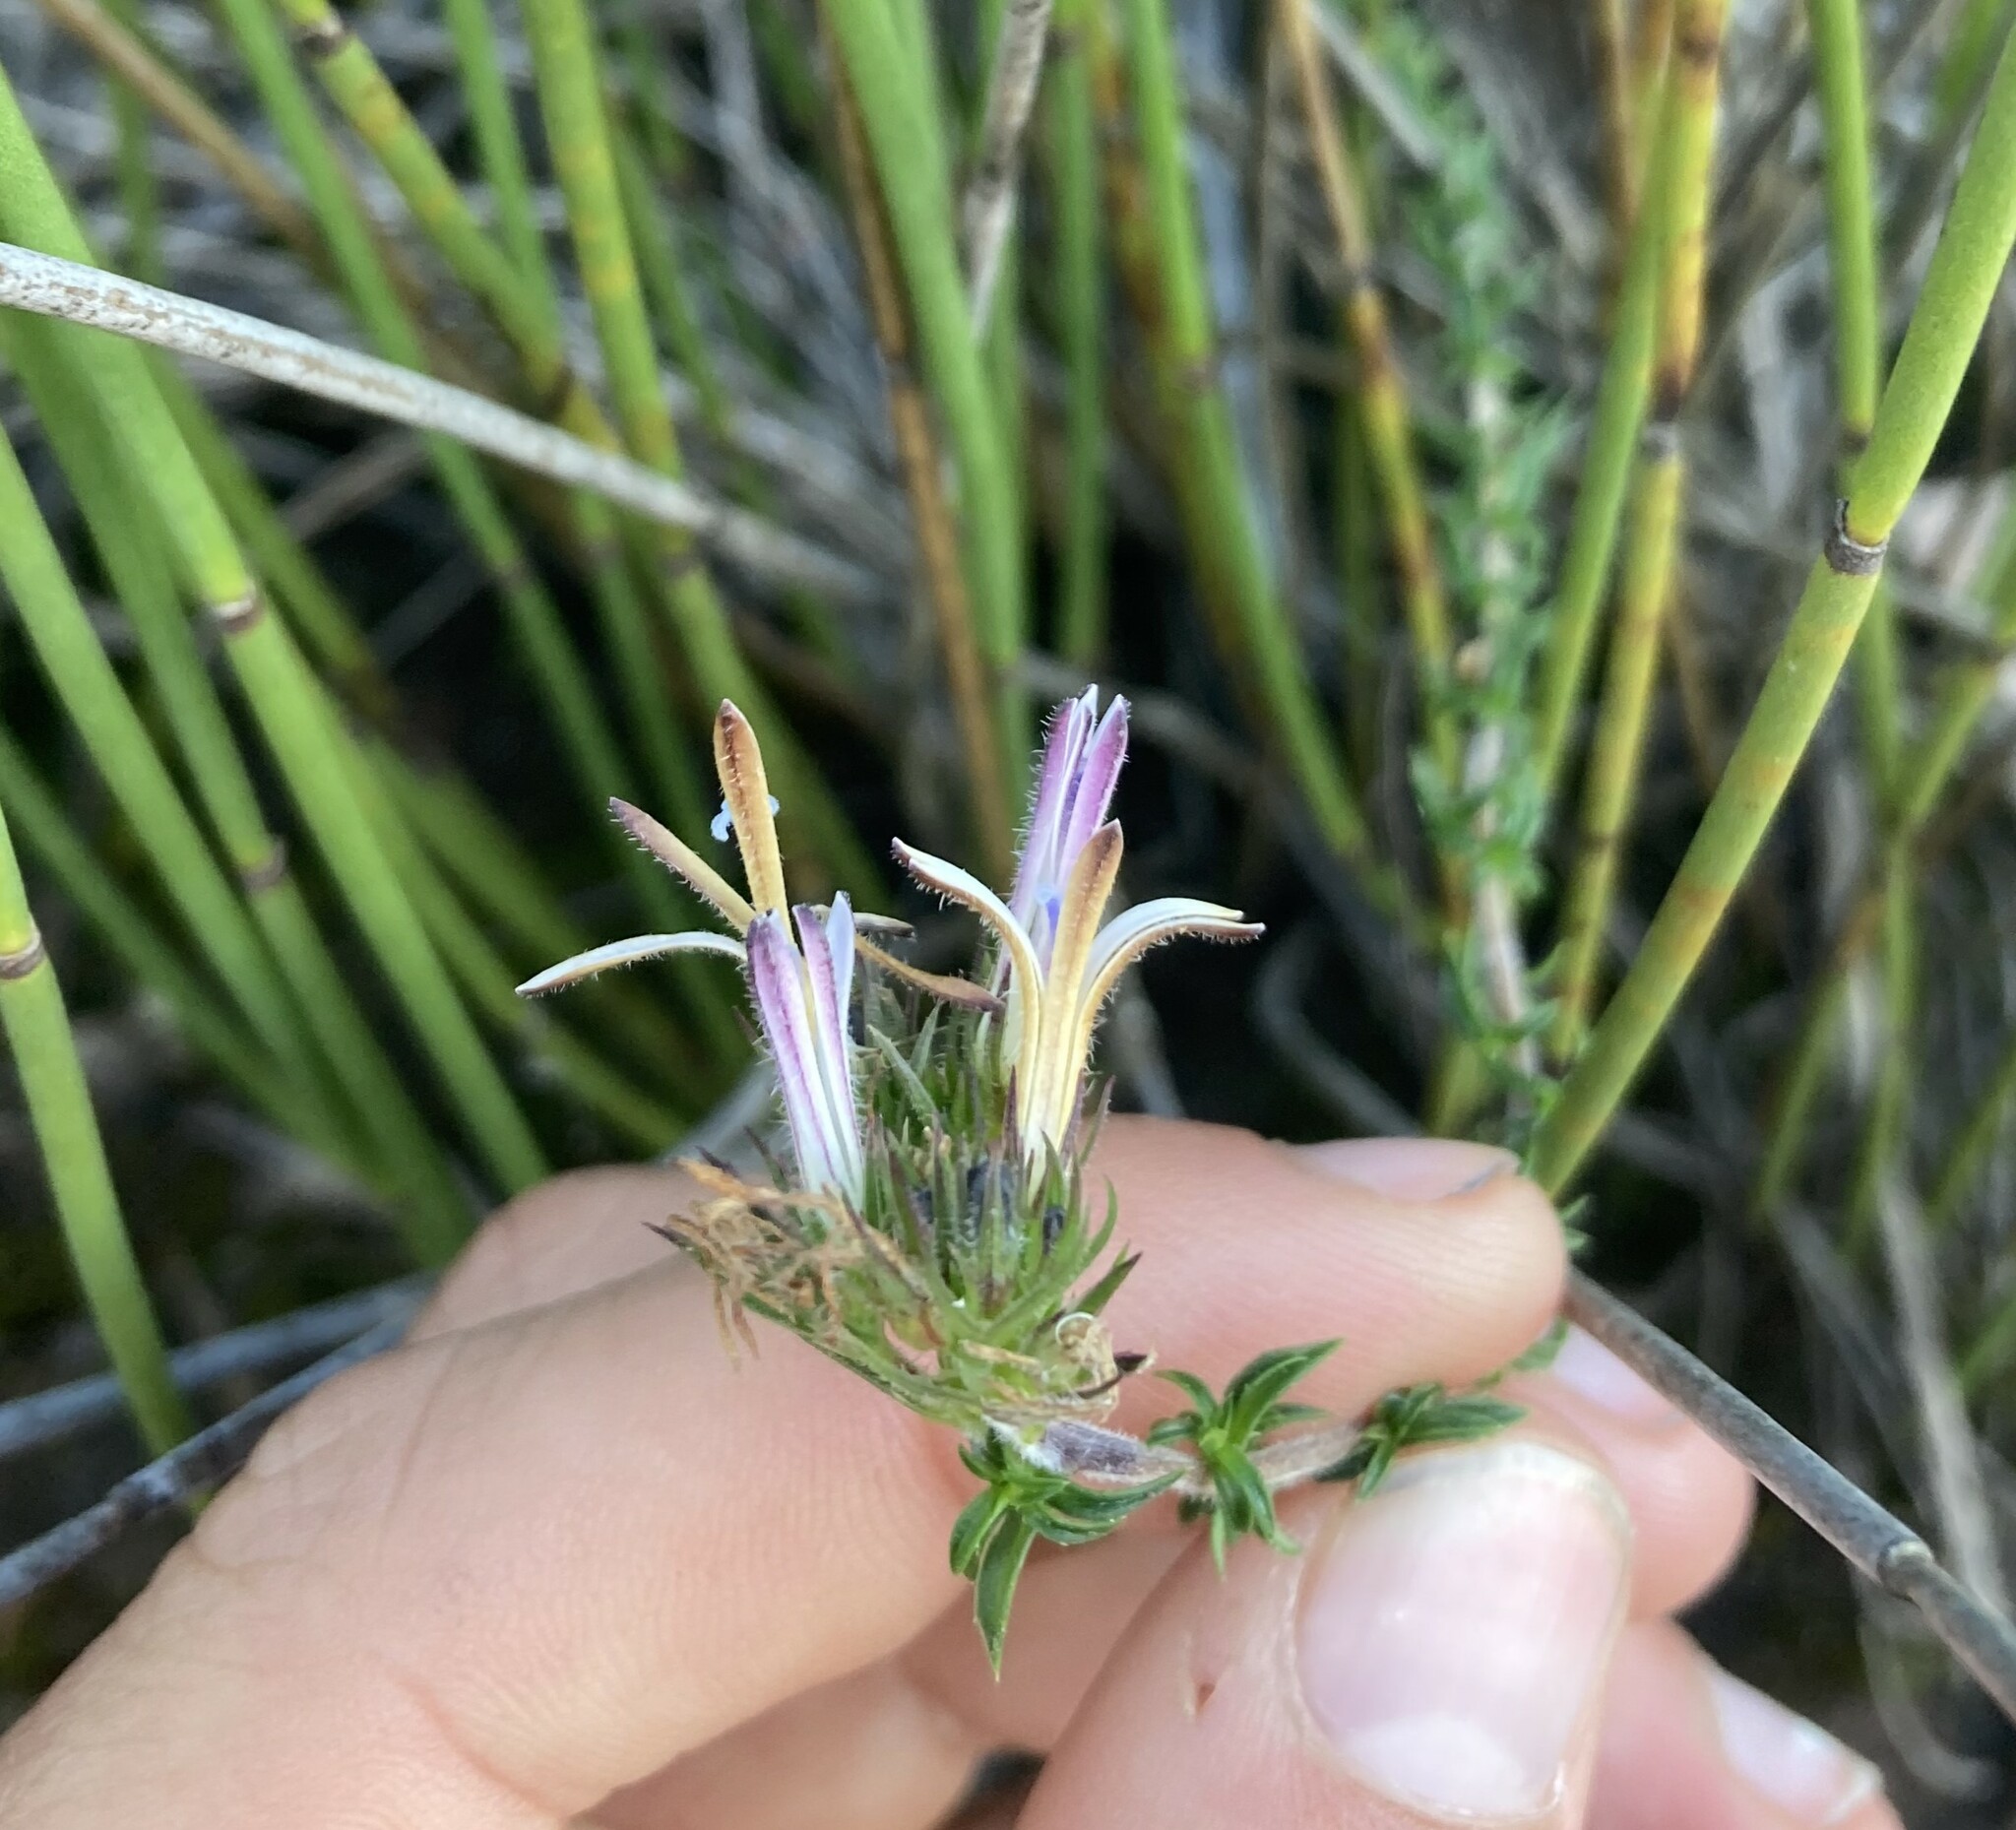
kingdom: Plantae
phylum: Tracheophyta
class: Magnoliopsida
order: Asterales
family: Campanulaceae
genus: Wahlenbergia
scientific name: Wahlenbergia desmantha
